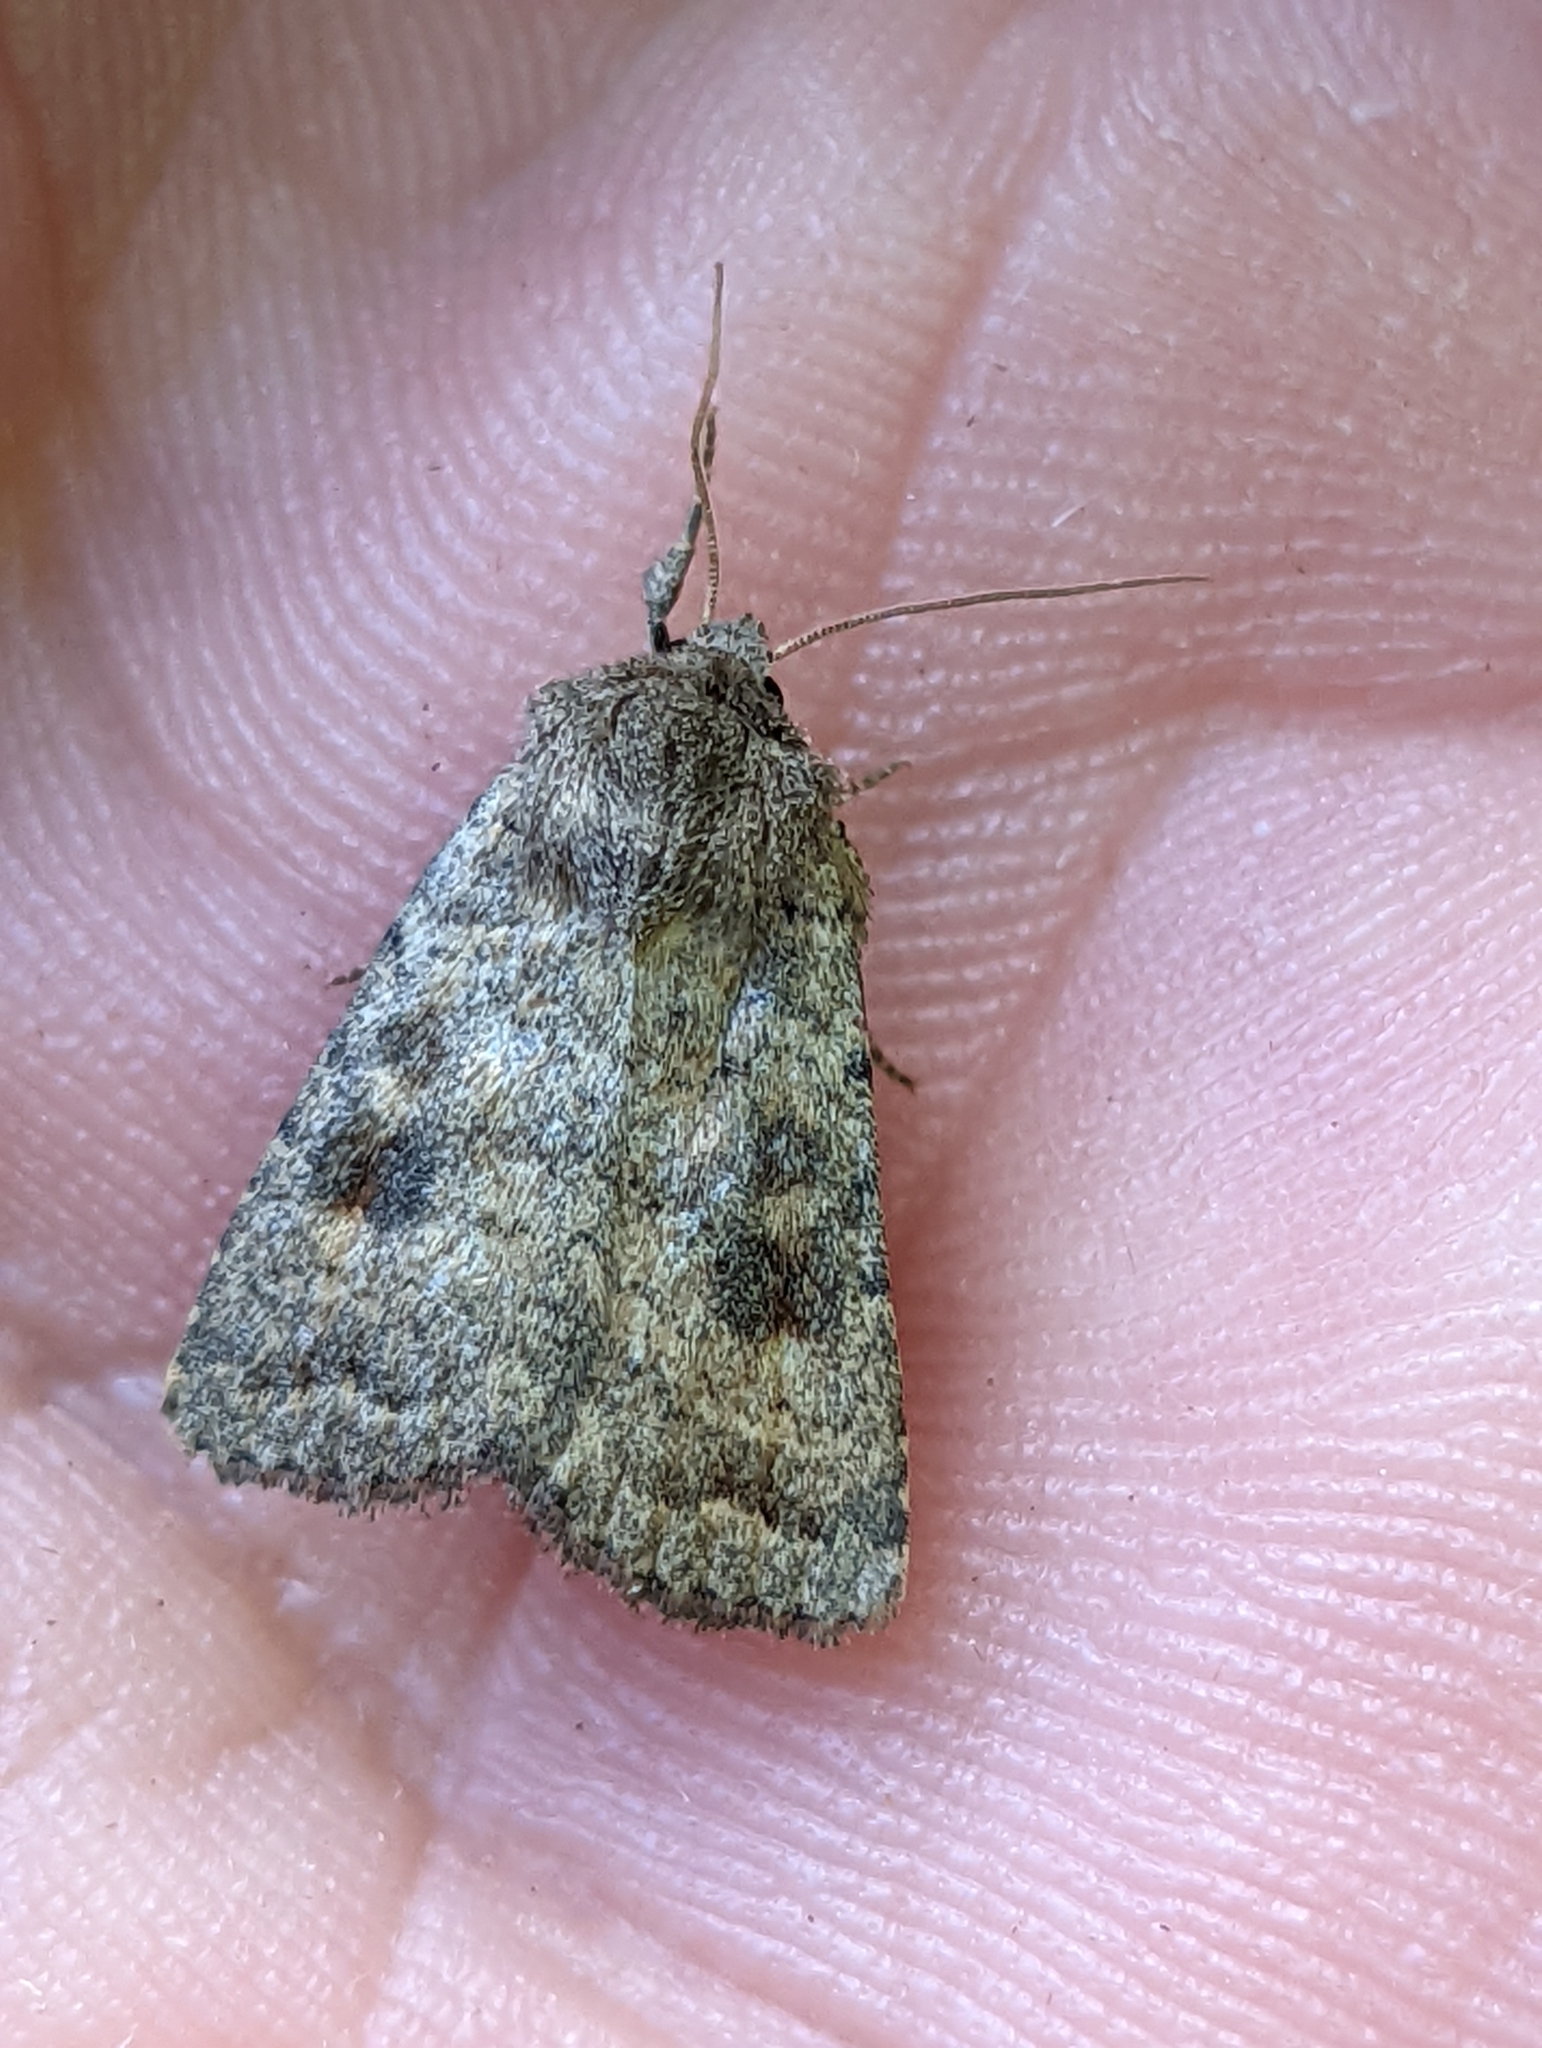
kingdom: Animalia
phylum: Arthropoda
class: Insecta
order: Lepidoptera
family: Noctuidae
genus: Caradrina
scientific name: Caradrina morpheus
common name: Mottled rustic
